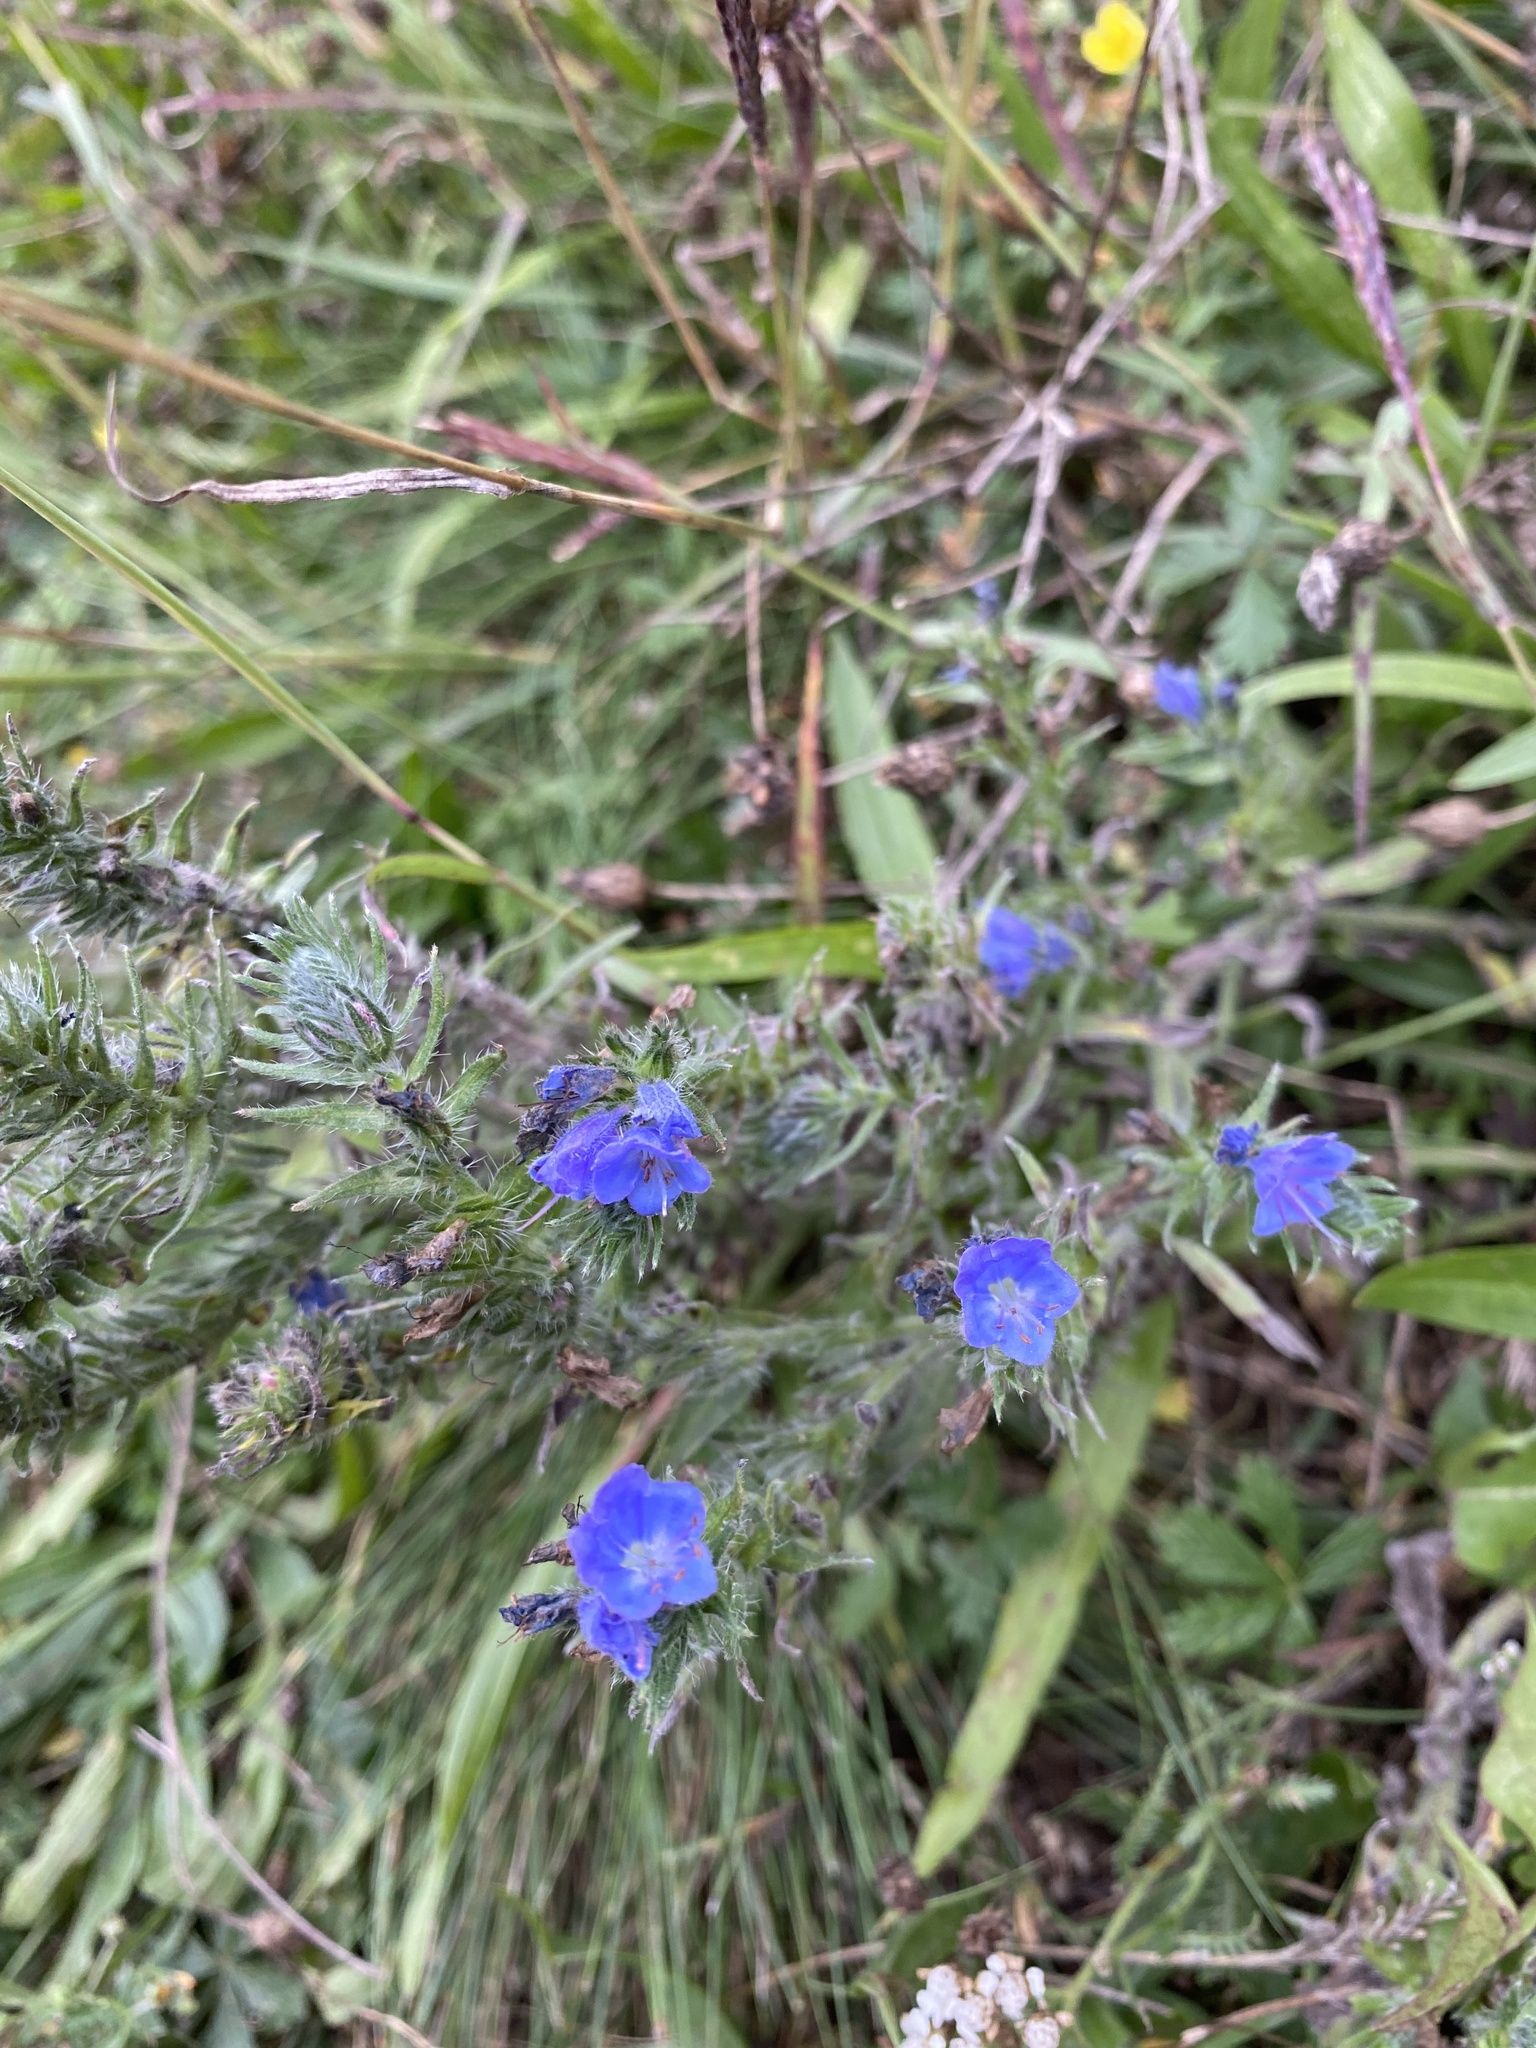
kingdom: Plantae
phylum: Tracheophyta
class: Magnoliopsida
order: Boraginales
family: Boraginaceae
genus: Echium
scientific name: Echium vulgare
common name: Common viper's bugloss
